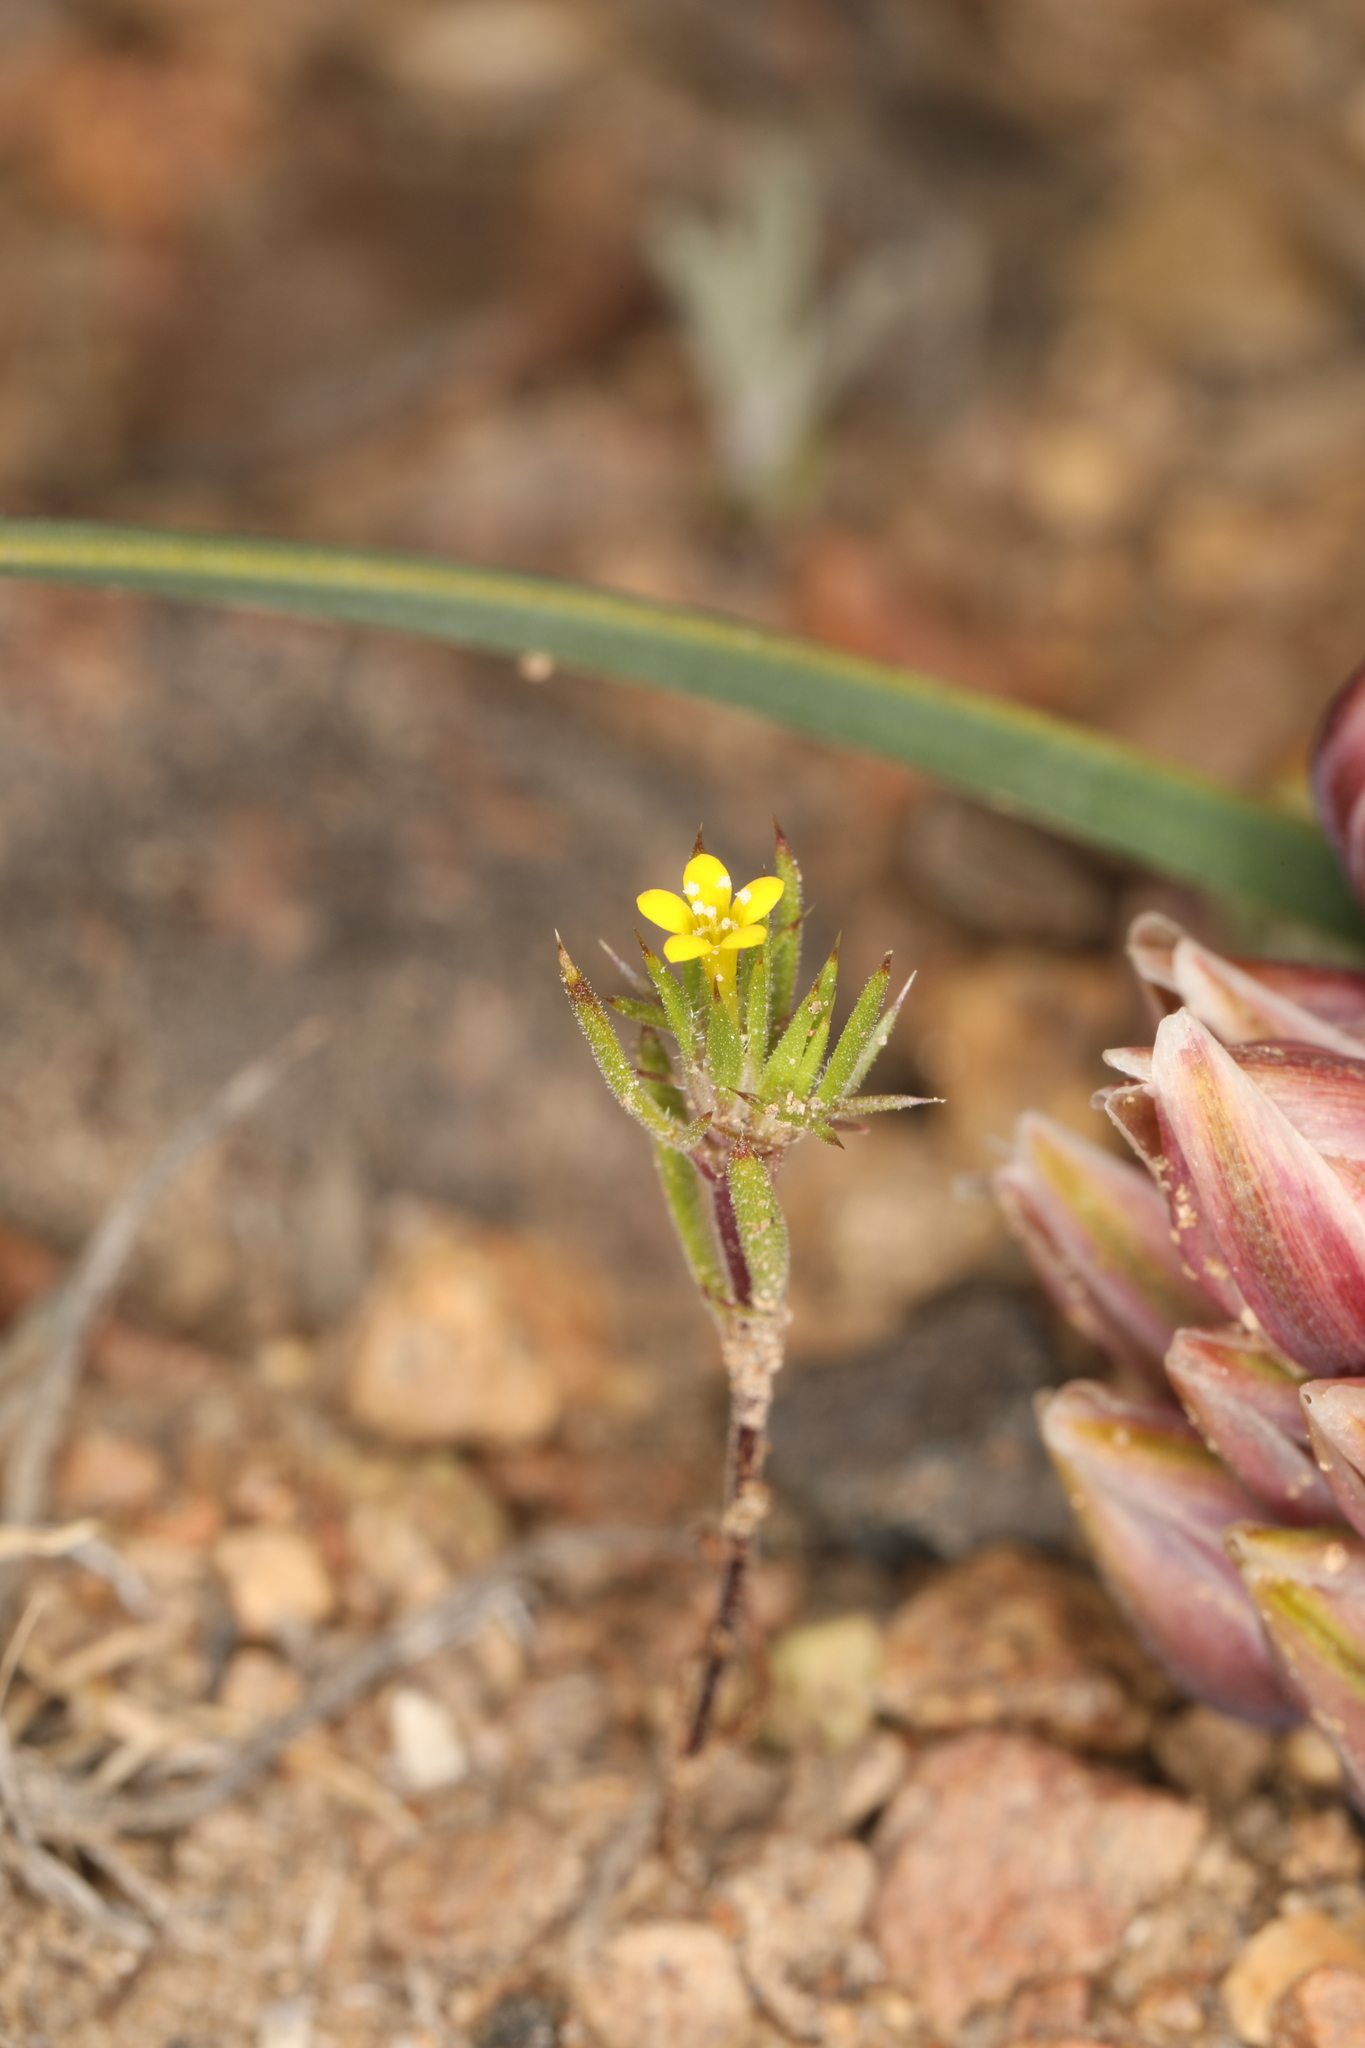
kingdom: Plantae
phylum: Tracheophyta
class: Magnoliopsida
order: Ericales
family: Polemoniaceae
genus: Navarretia
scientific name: Navarretia breweri
